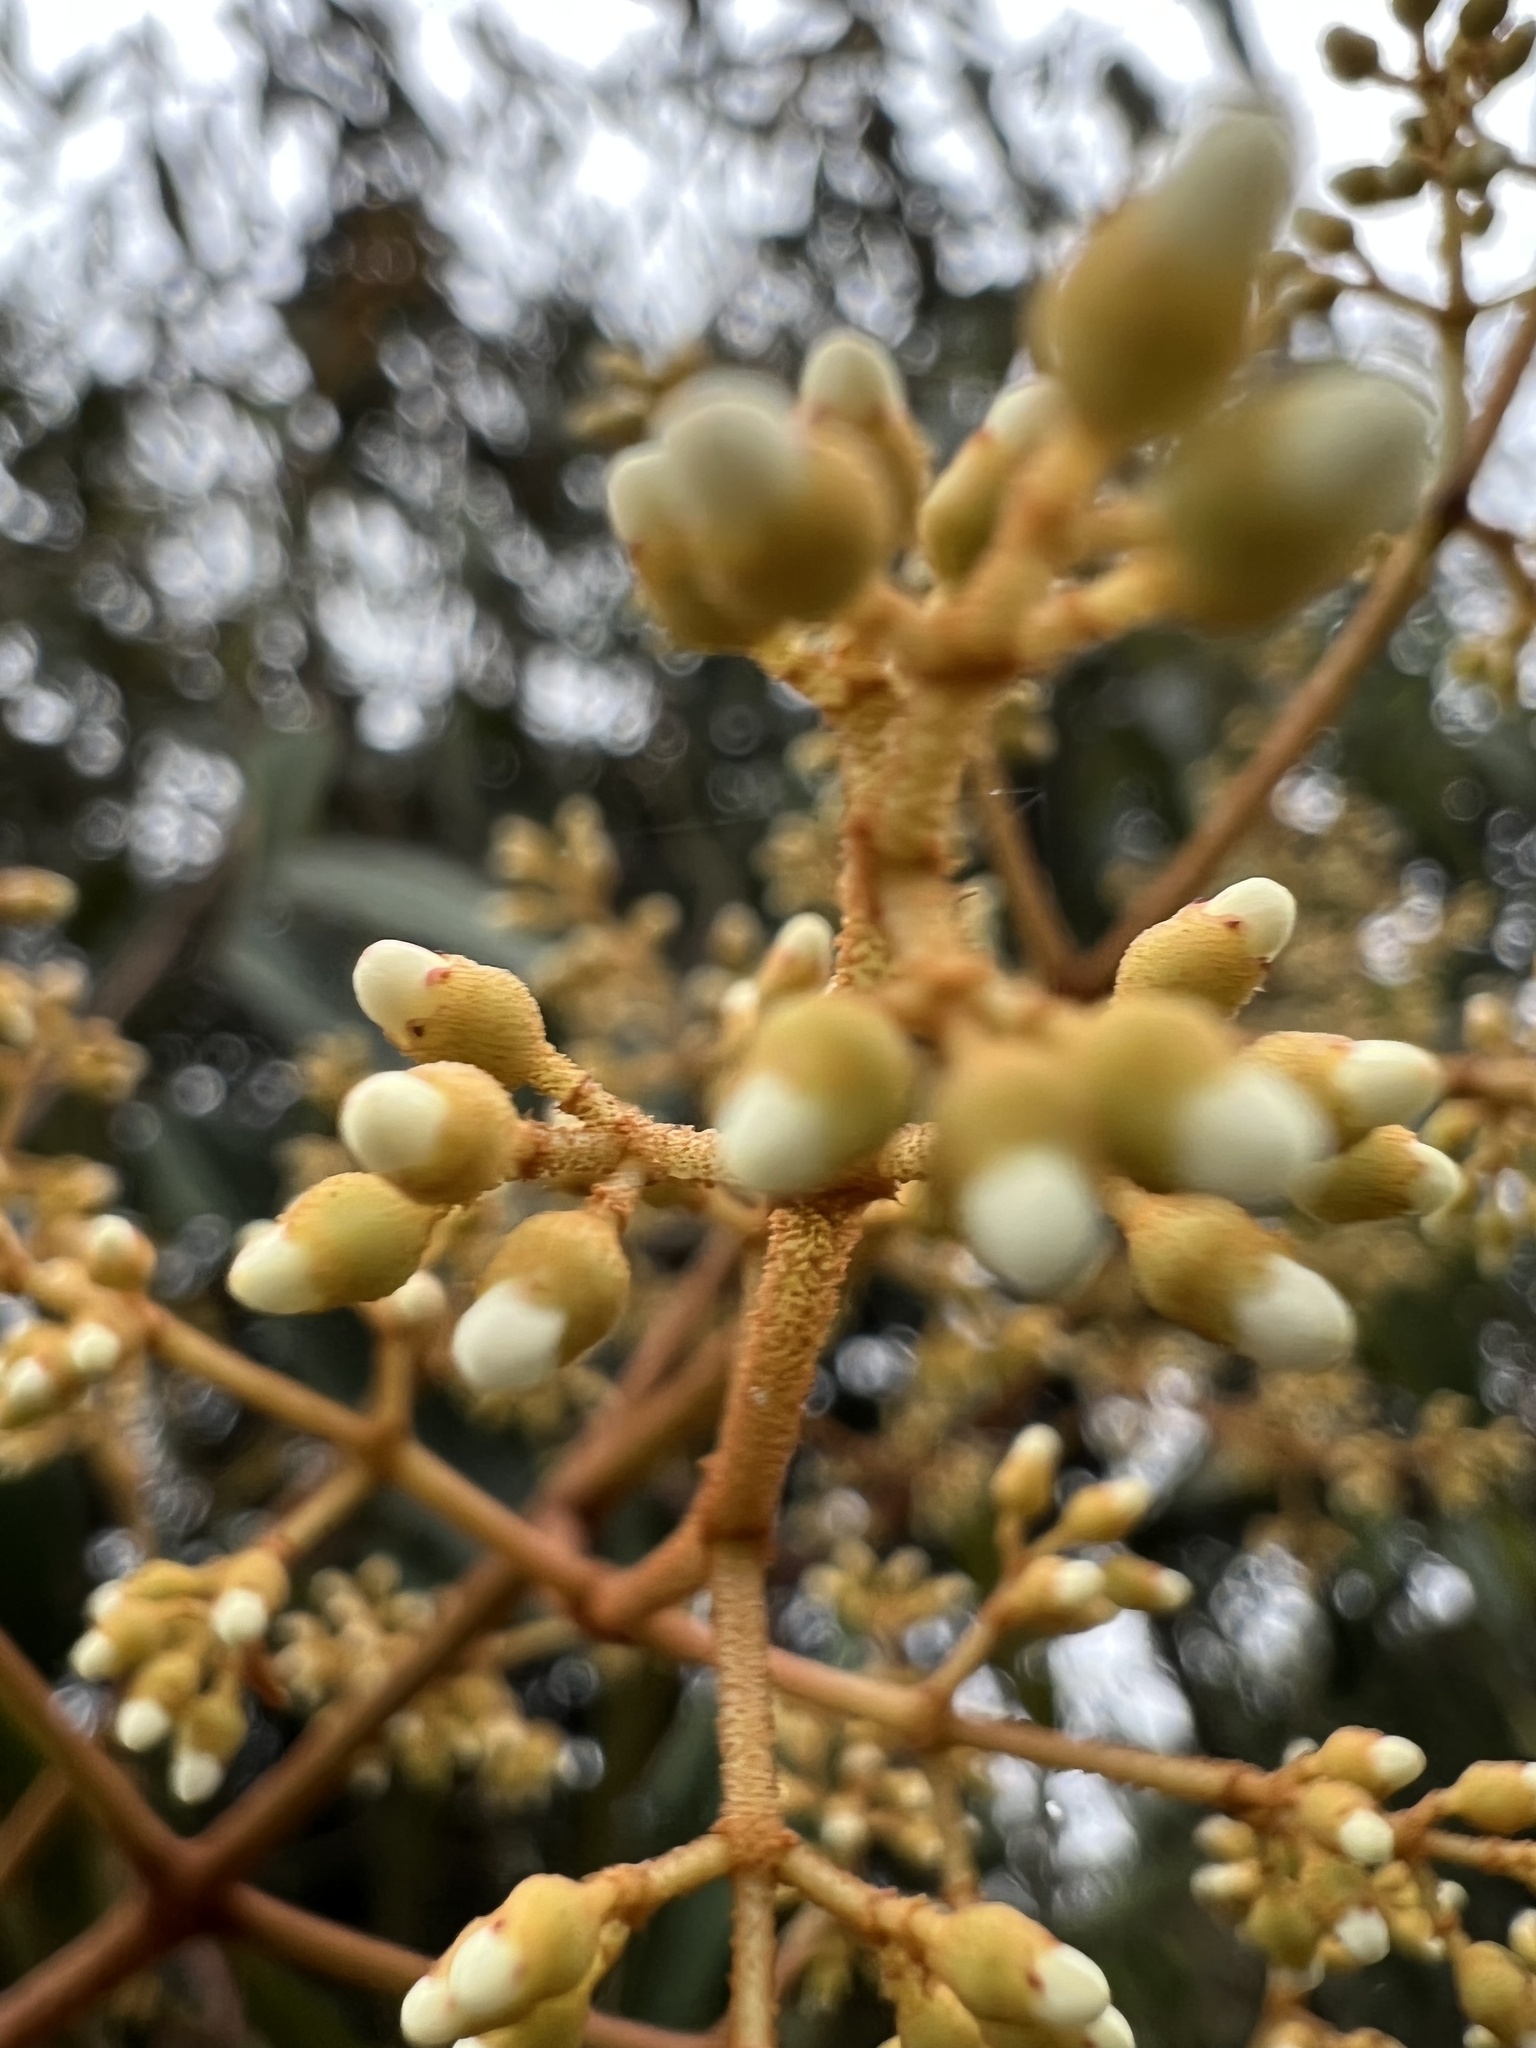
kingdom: Plantae
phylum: Tracheophyta
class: Magnoliopsida
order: Myrtales
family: Melastomataceae
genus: Miconia
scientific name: Miconia miocarpa
